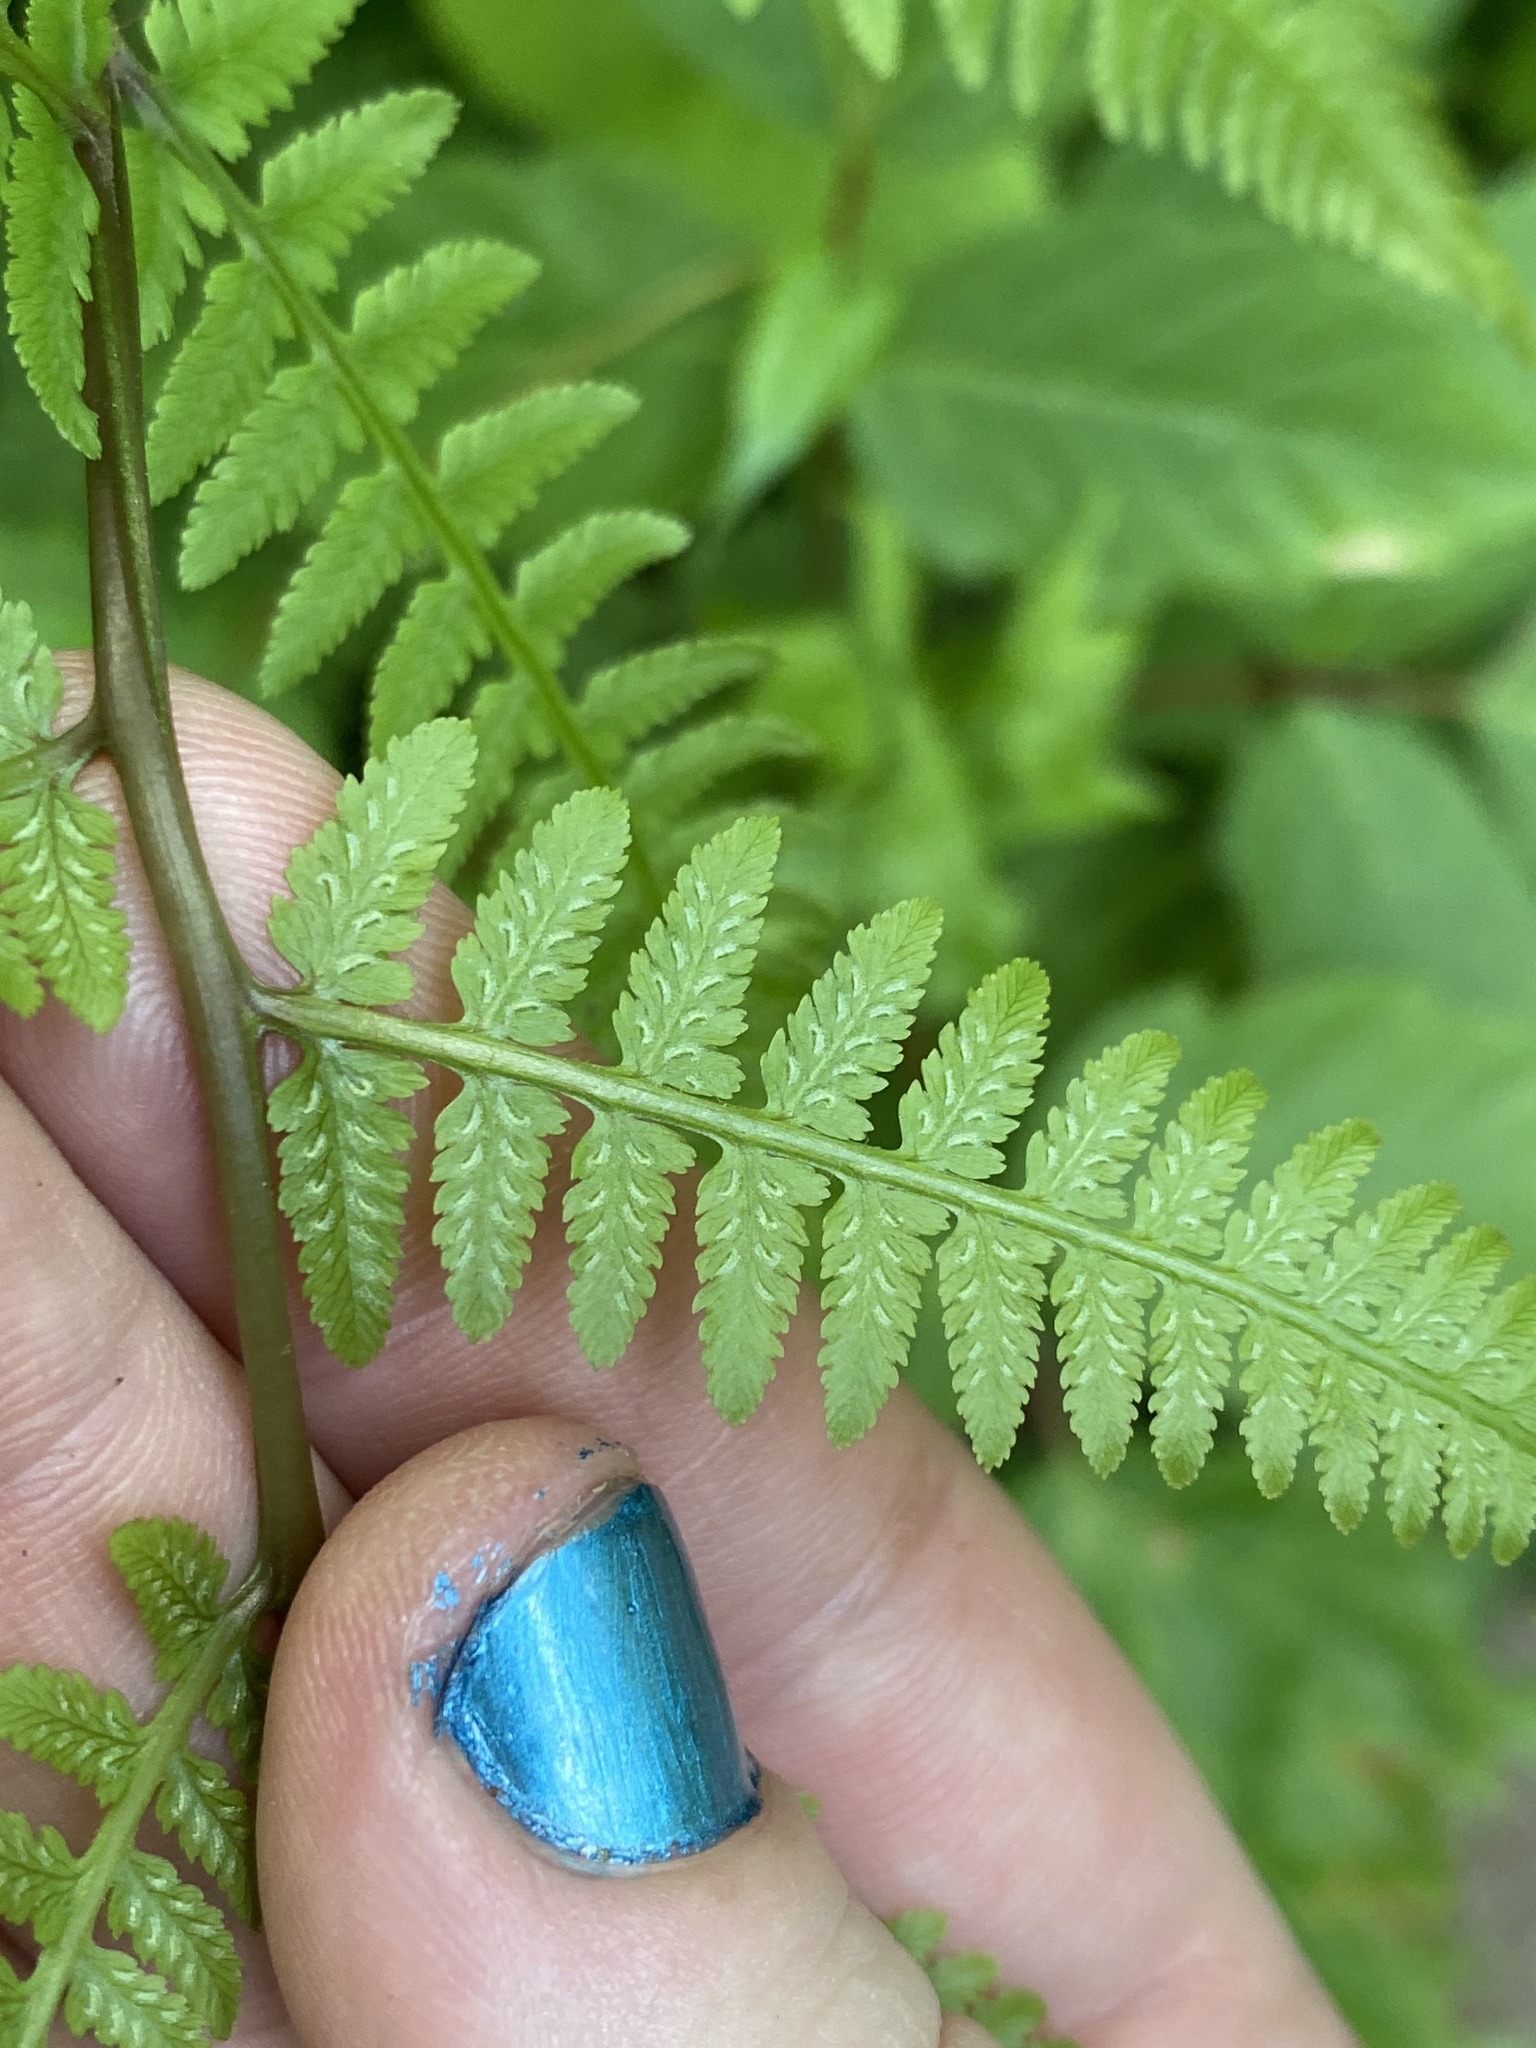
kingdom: Plantae
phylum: Tracheophyta
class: Polypodiopsida
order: Polypodiales
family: Athyriaceae
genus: Athyrium
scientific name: Athyrium asplenioides
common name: Southern lady fern
